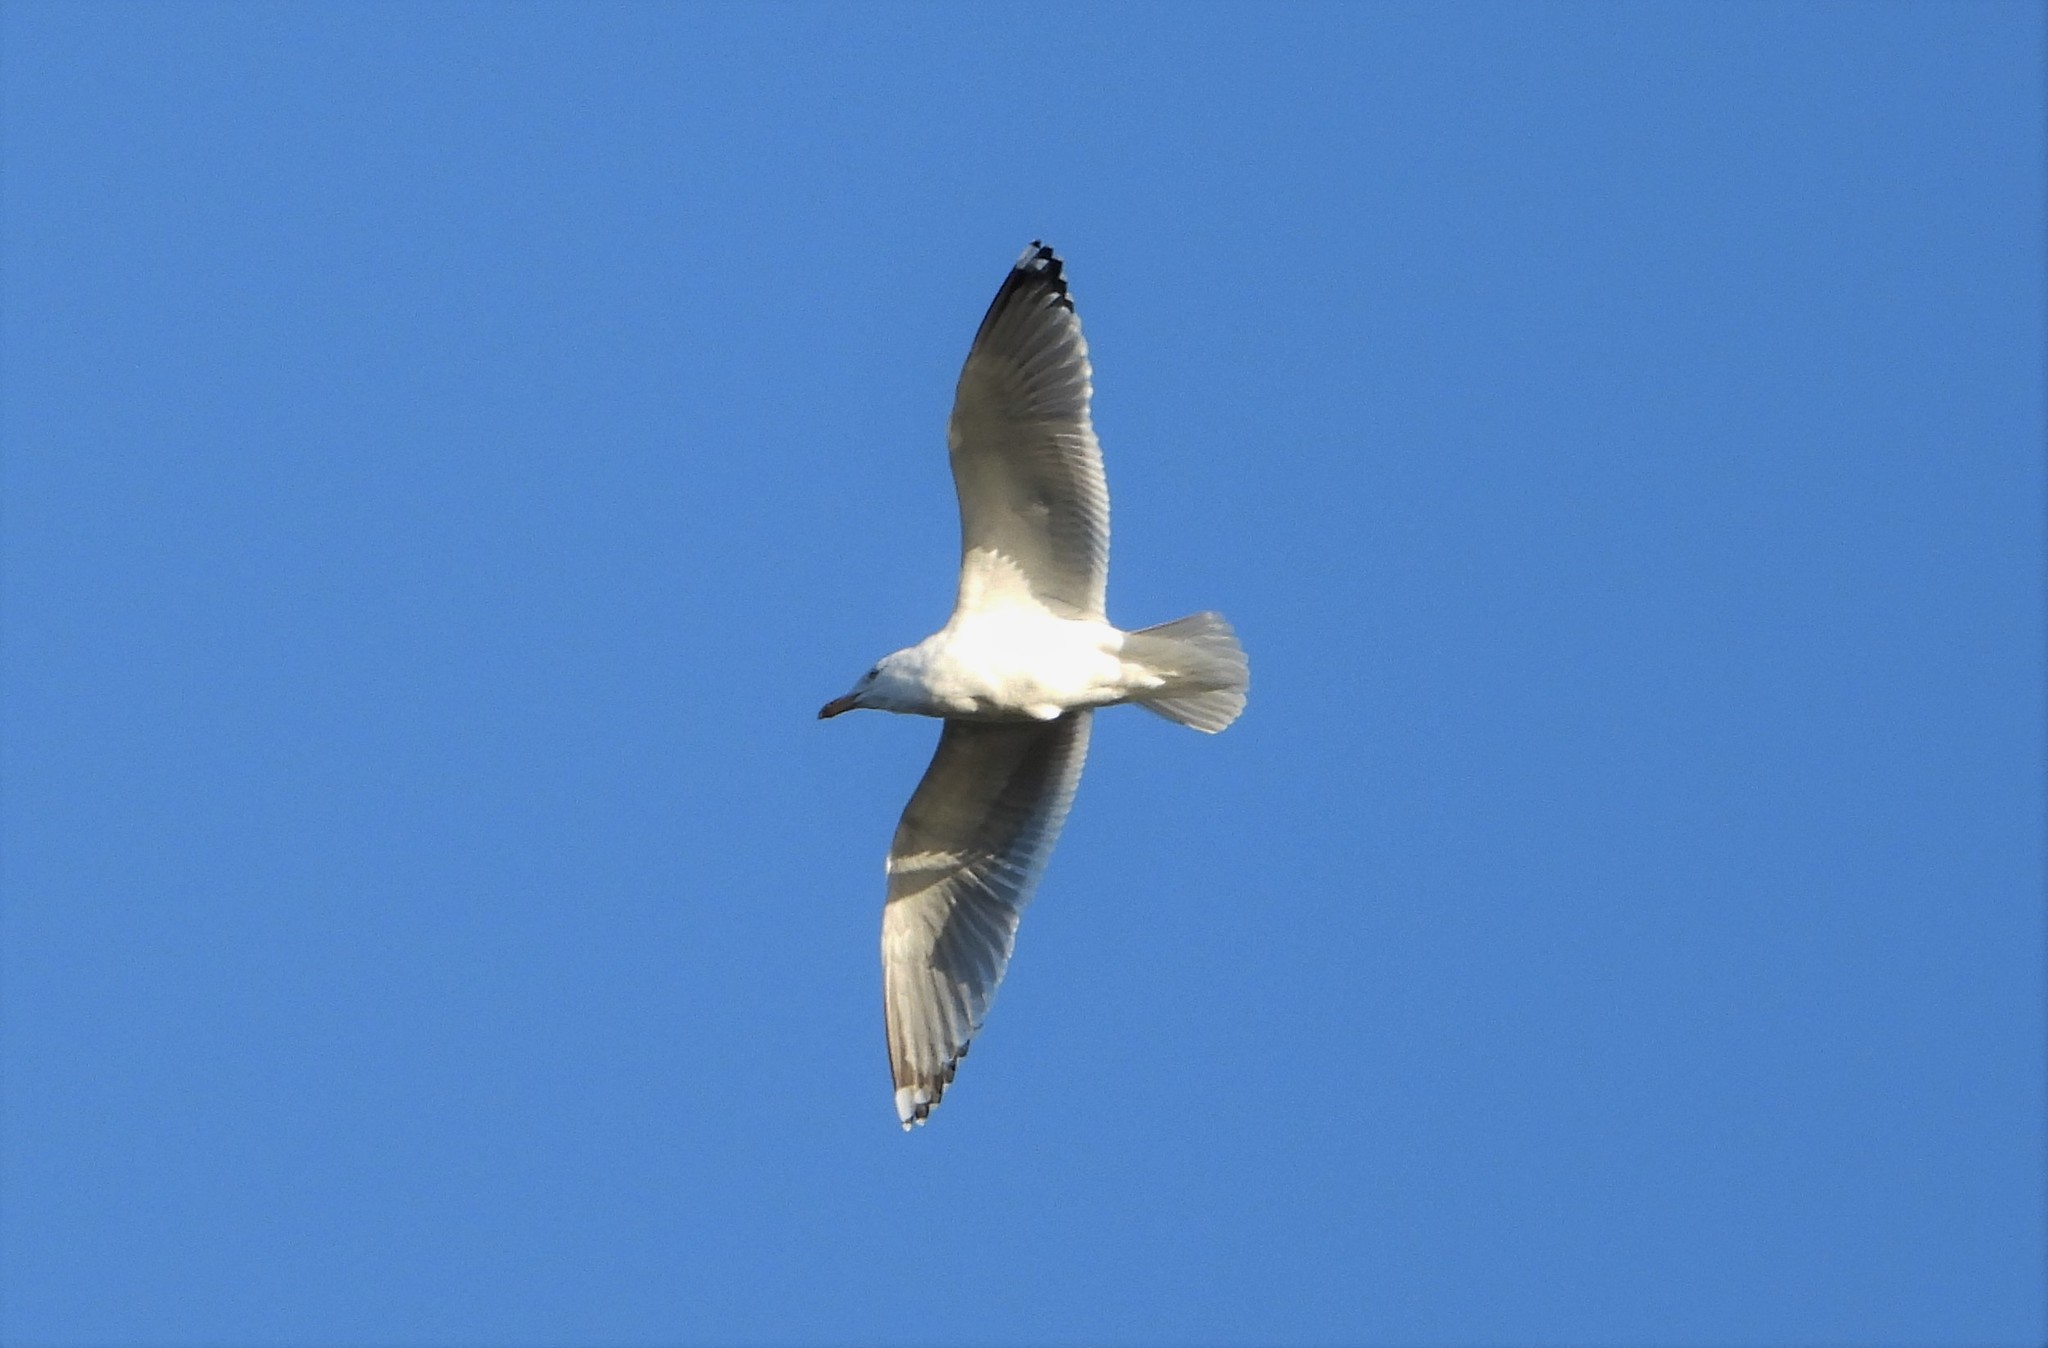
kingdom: Animalia
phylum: Chordata
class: Aves
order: Charadriiformes
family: Laridae
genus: Larus
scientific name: Larus argentatus
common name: Herring gull
